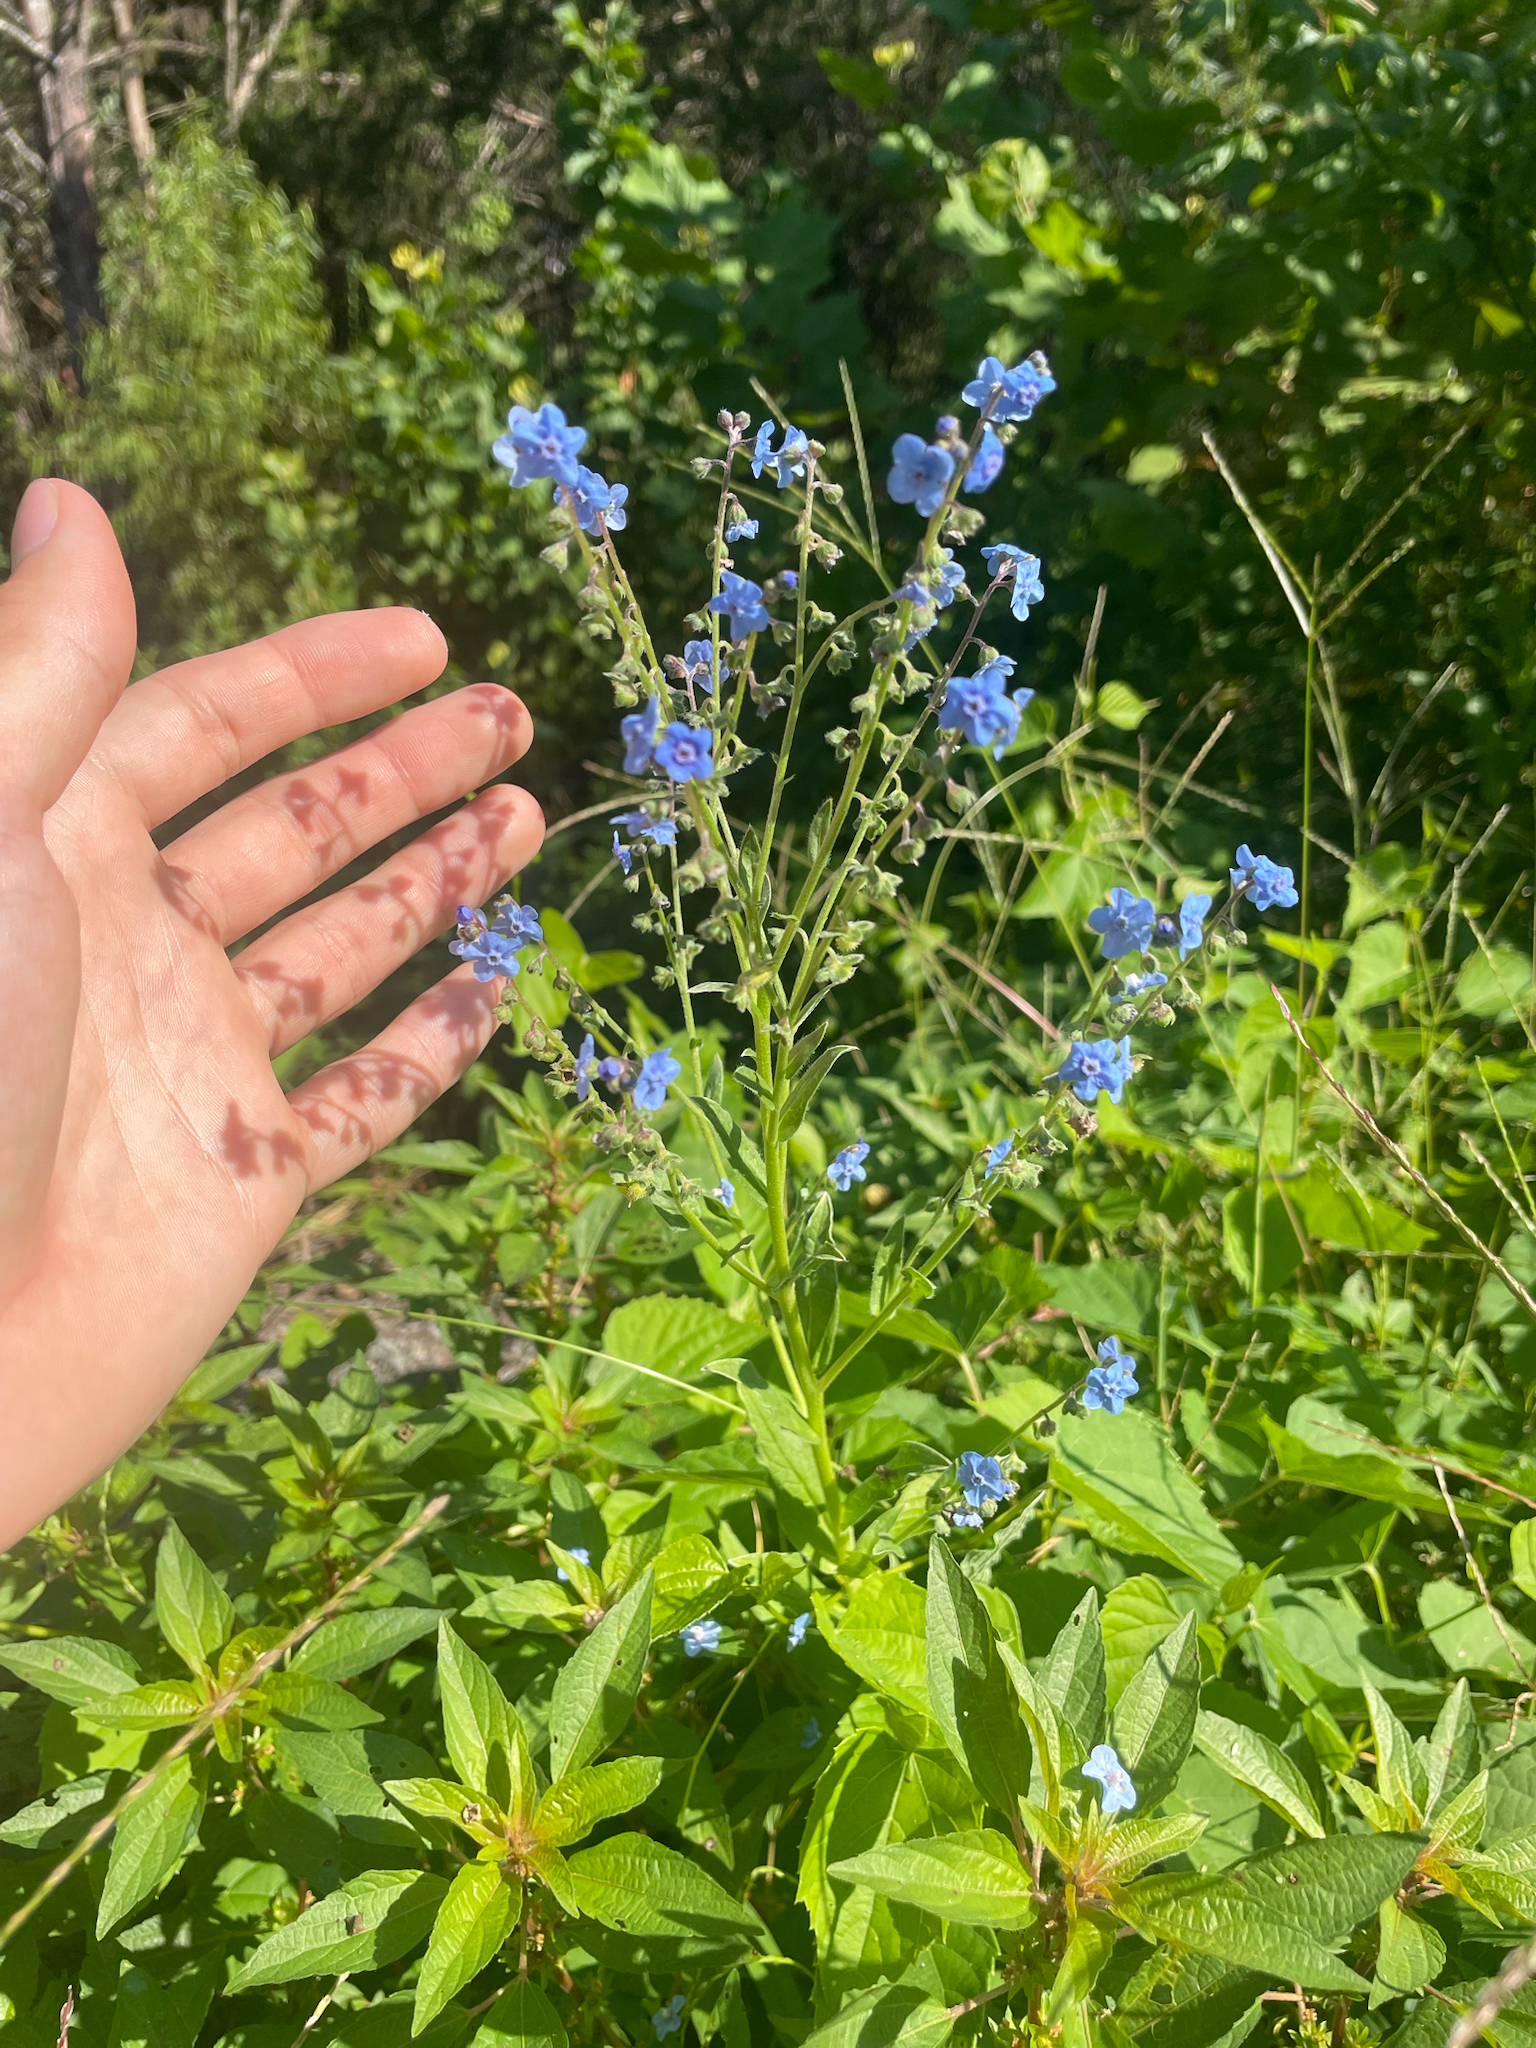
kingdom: Plantae
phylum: Tracheophyta
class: Magnoliopsida
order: Boraginales
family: Boraginaceae
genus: Cynoglossum
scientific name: Cynoglossum amabile
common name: Chinese hound's tongue
